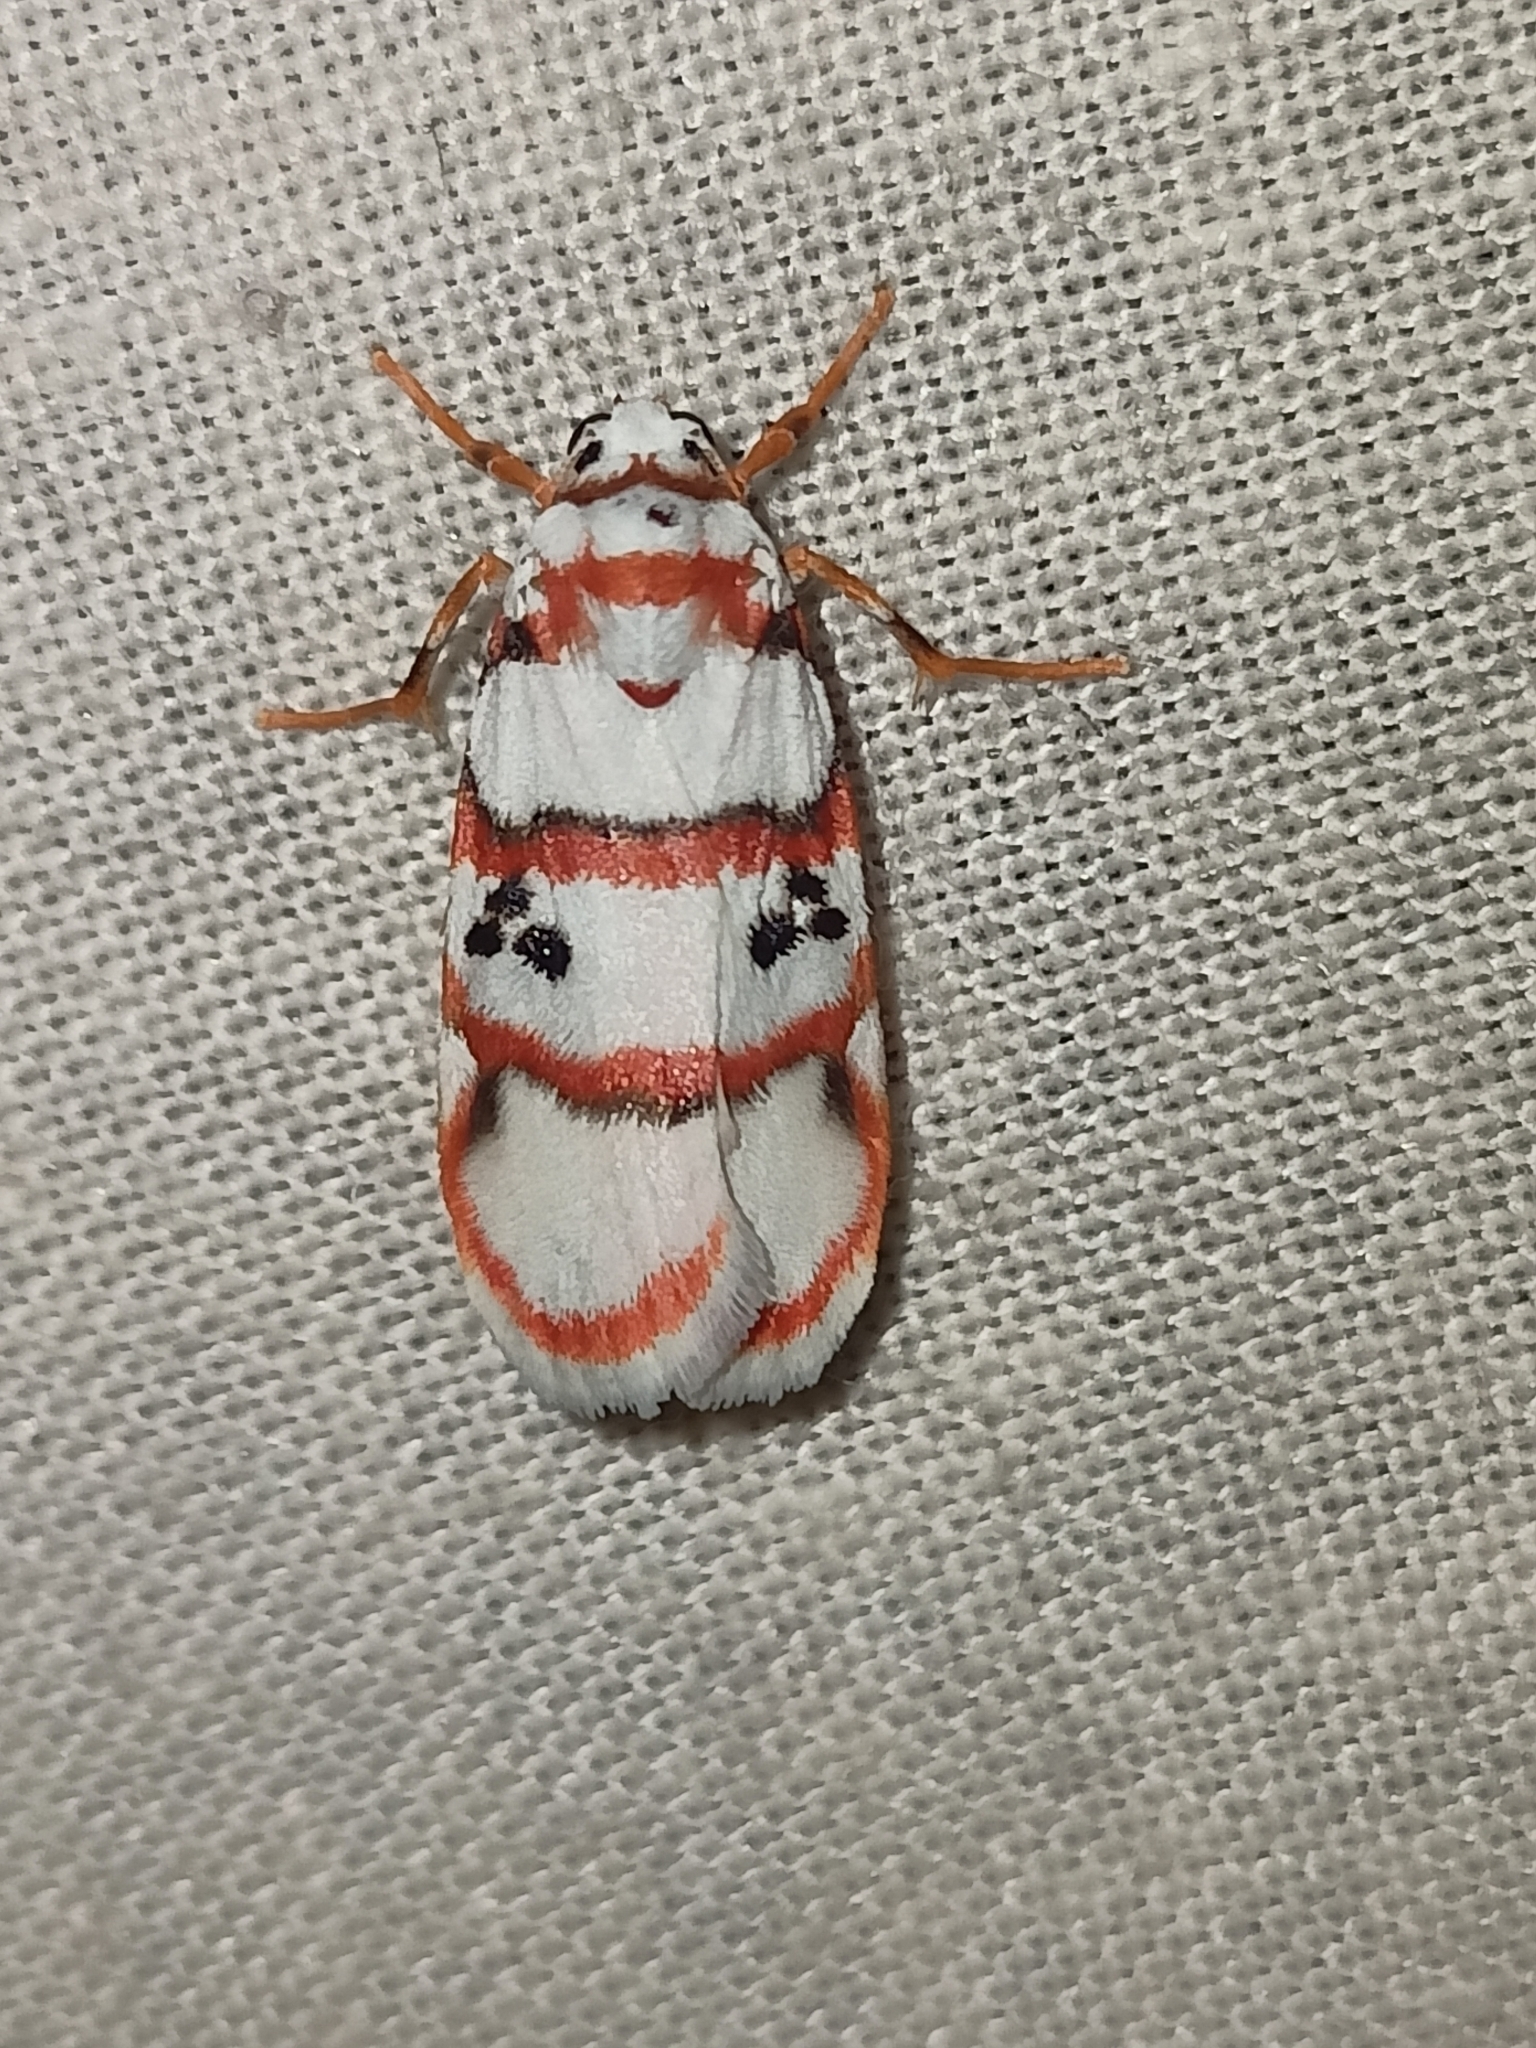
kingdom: Animalia
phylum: Arthropoda
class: Insecta
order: Lepidoptera
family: Erebidae
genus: Cyana
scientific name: Cyana peregrina
